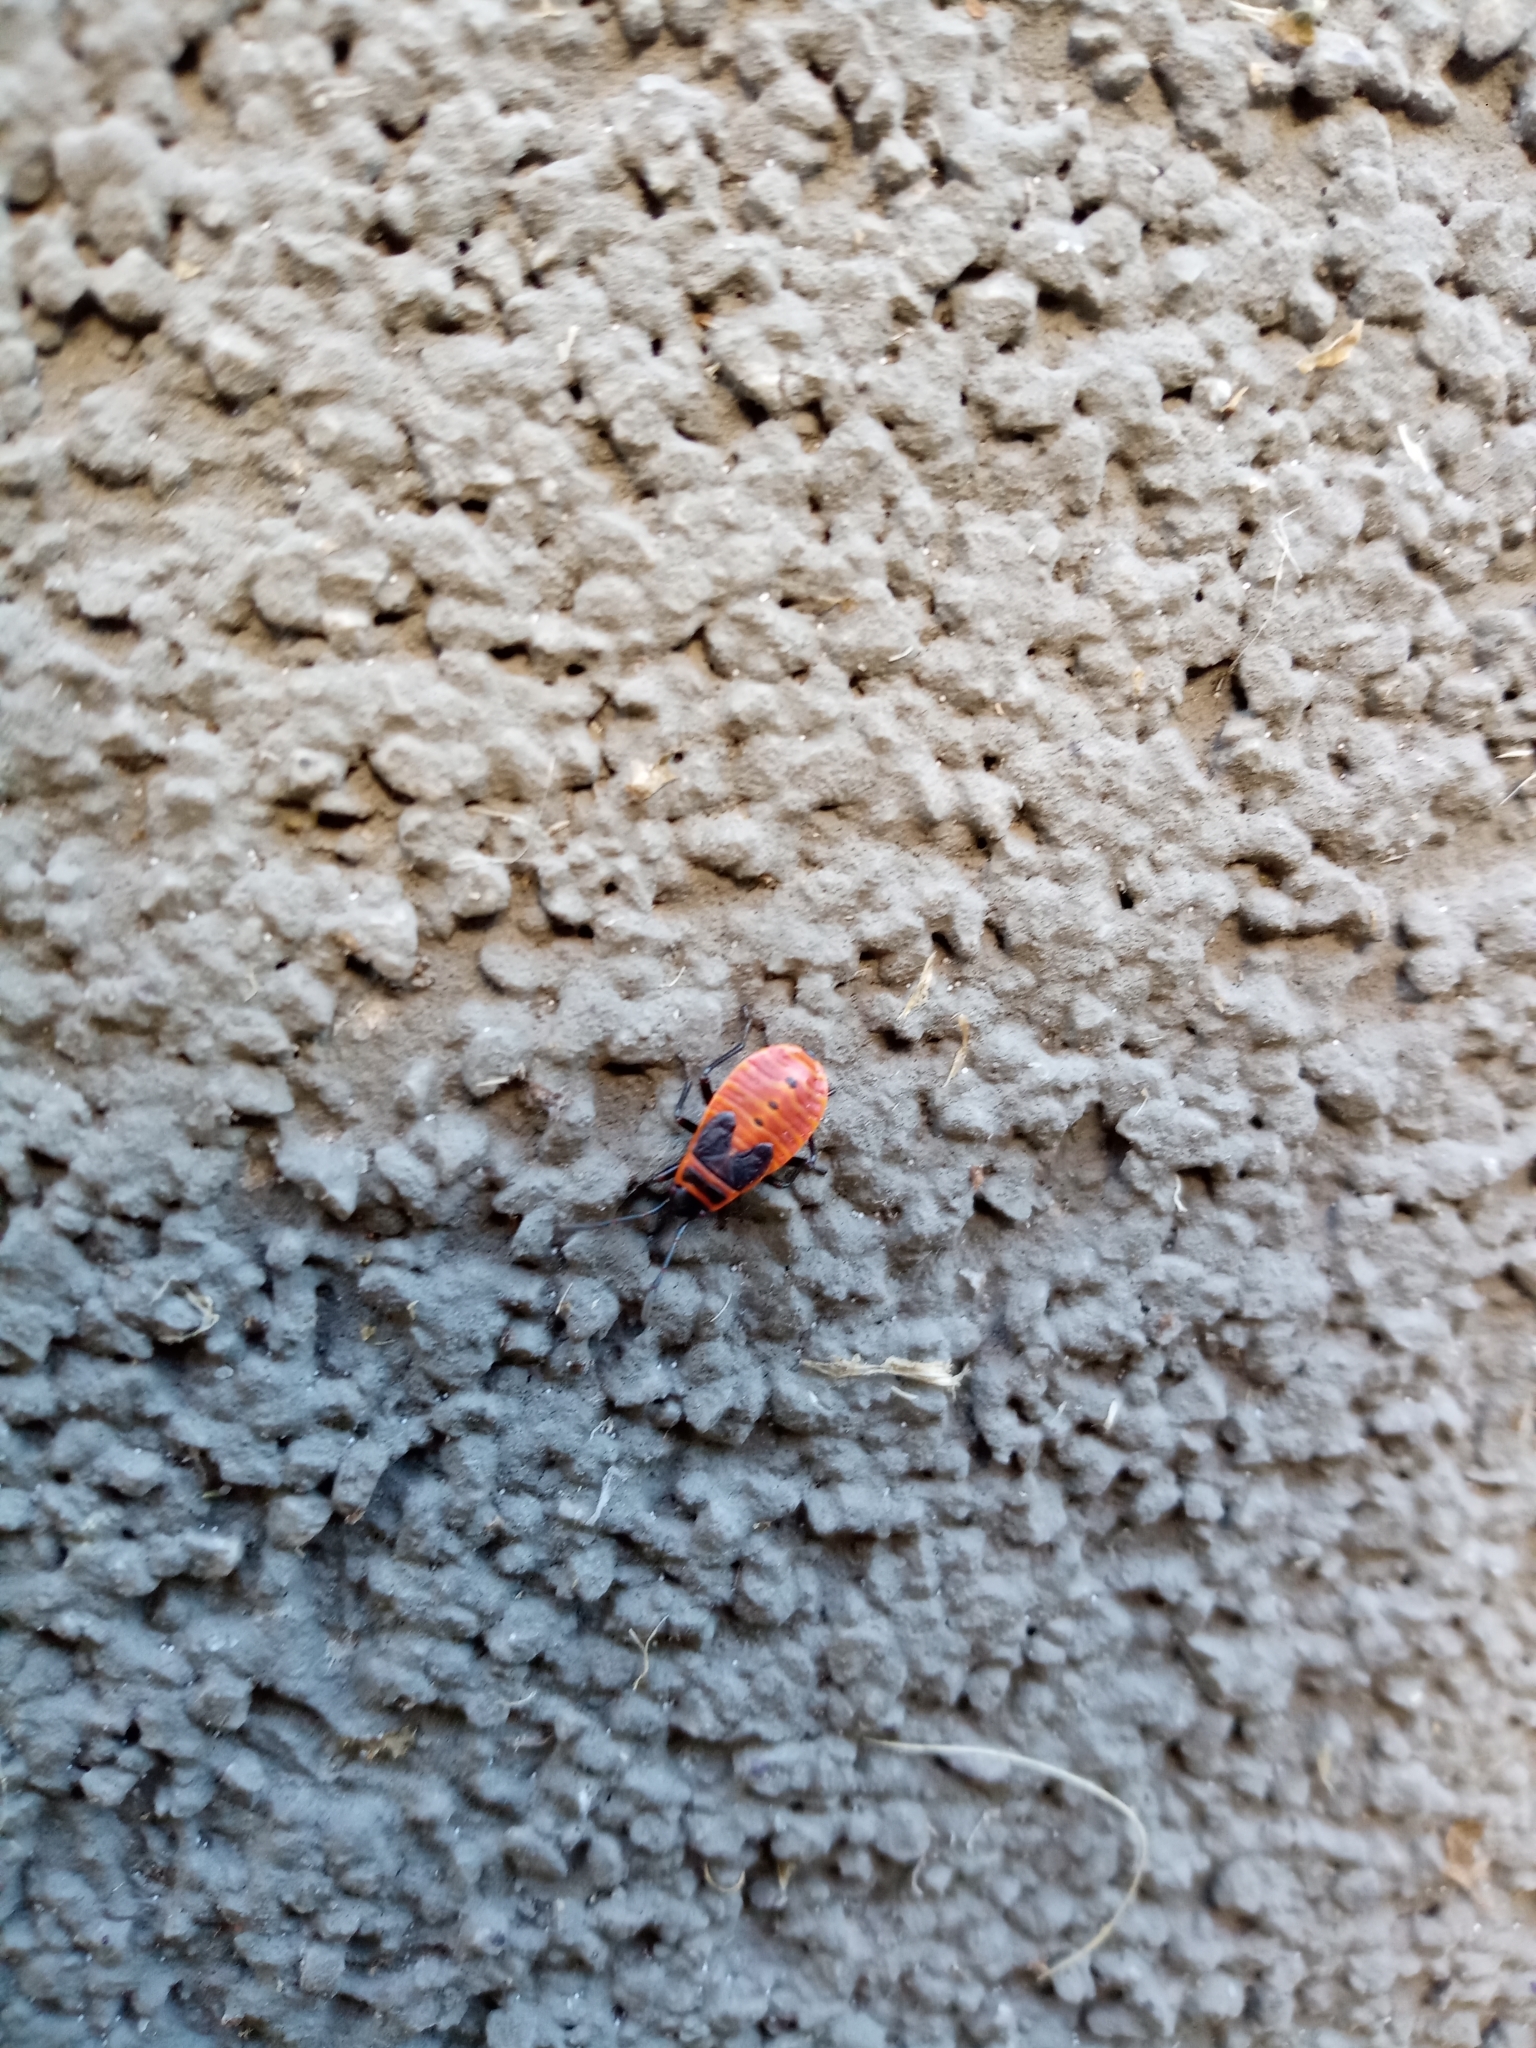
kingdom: Animalia
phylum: Arthropoda
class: Insecta
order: Hemiptera
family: Pyrrhocoridae
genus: Pyrrhocoris
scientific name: Pyrrhocoris apterus
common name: Firebug
